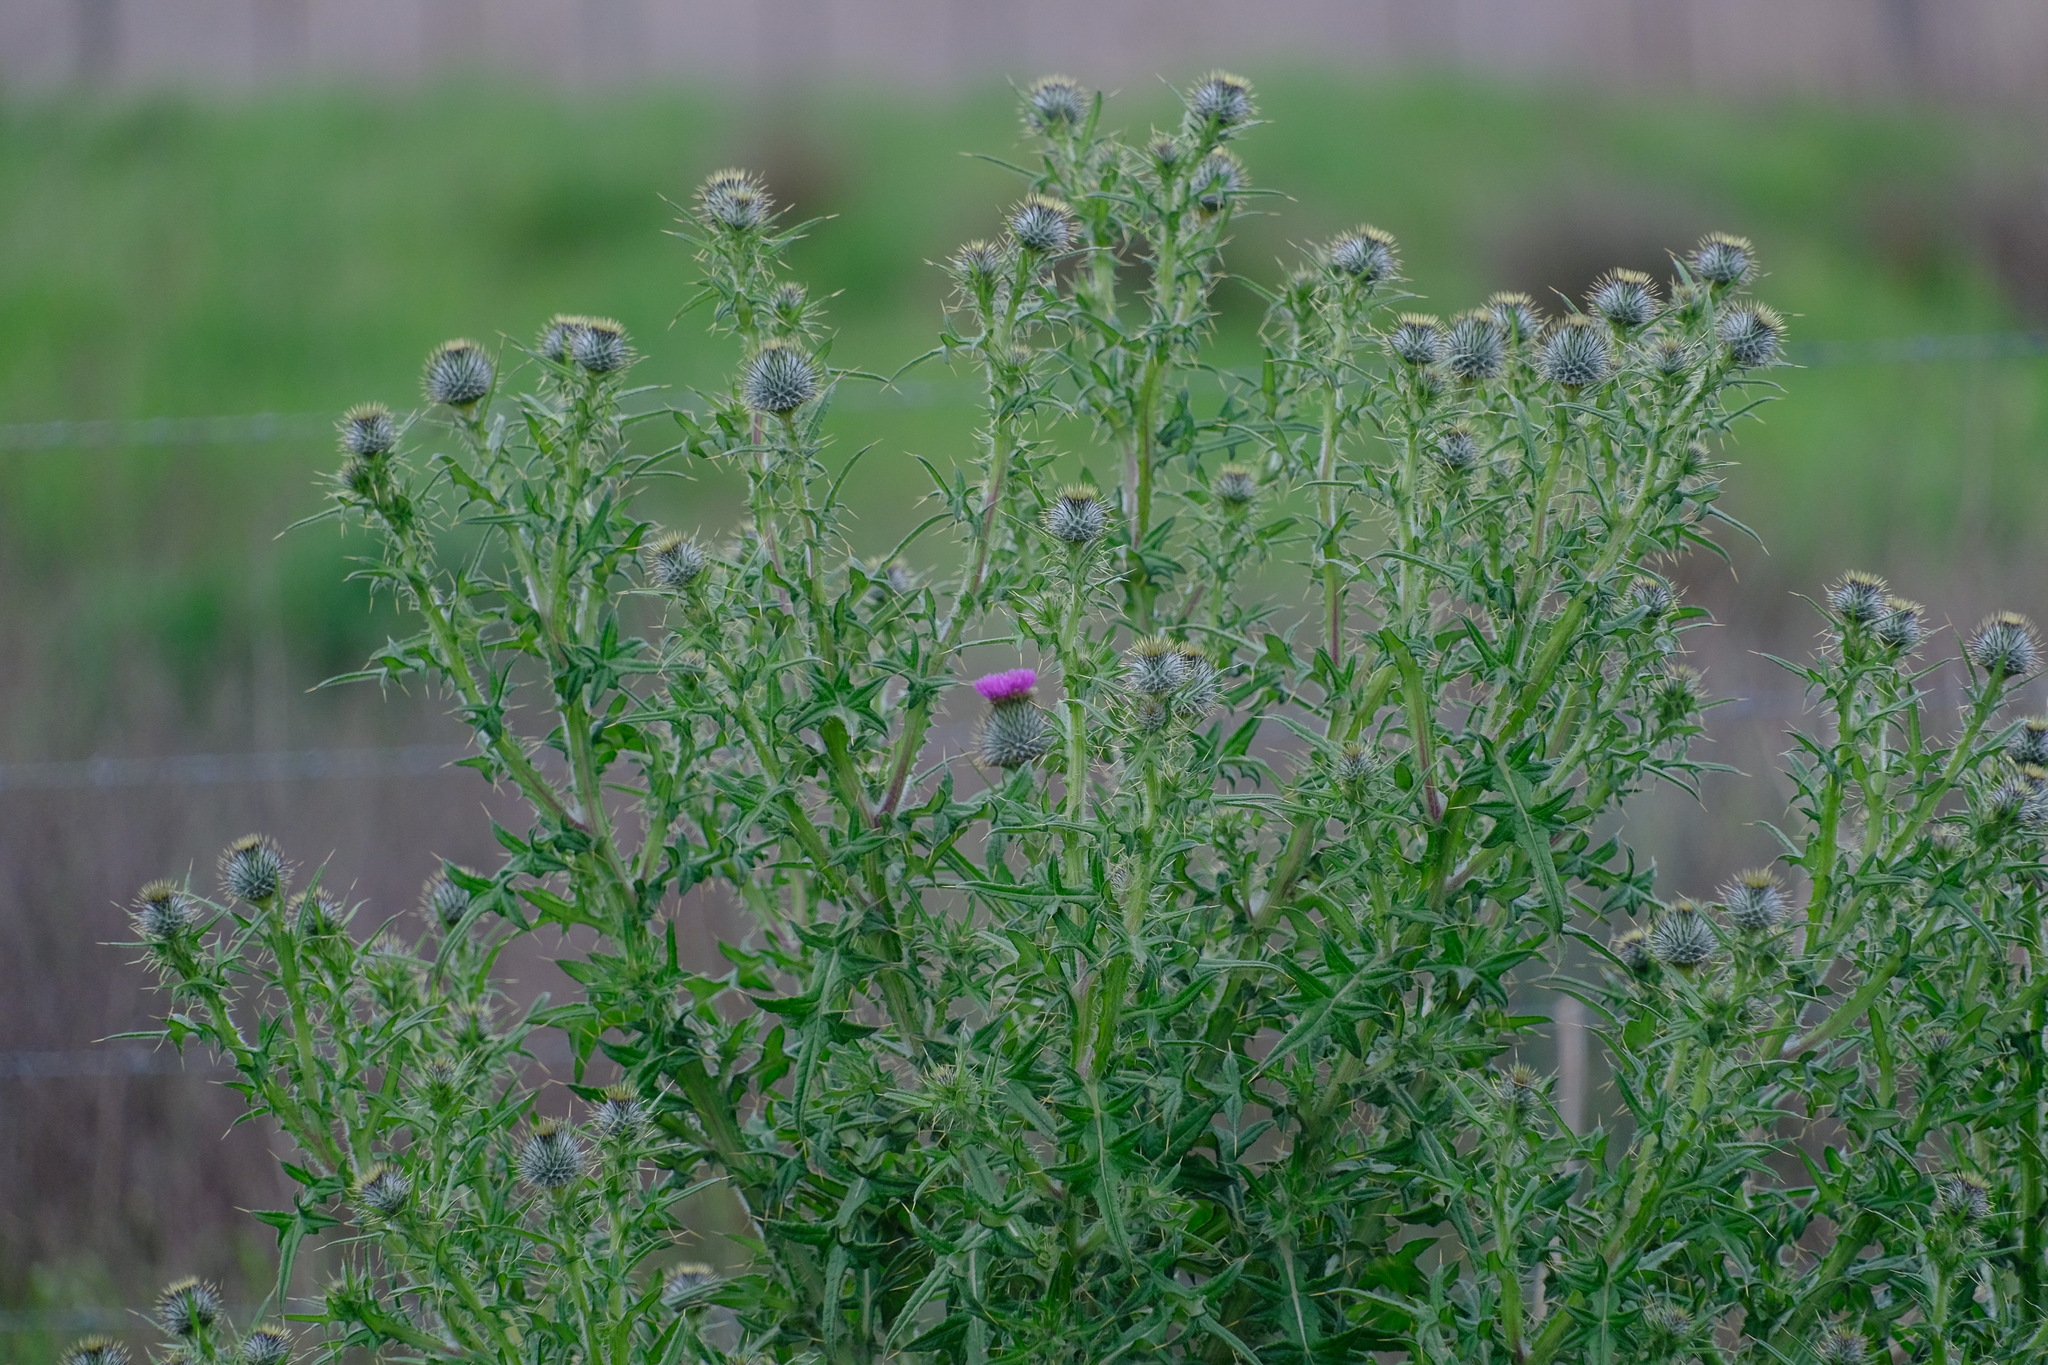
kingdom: Plantae
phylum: Tracheophyta
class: Magnoliopsida
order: Asterales
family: Asteraceae
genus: Cirsium
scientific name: Cirsium vulgare
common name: Bull thistle
